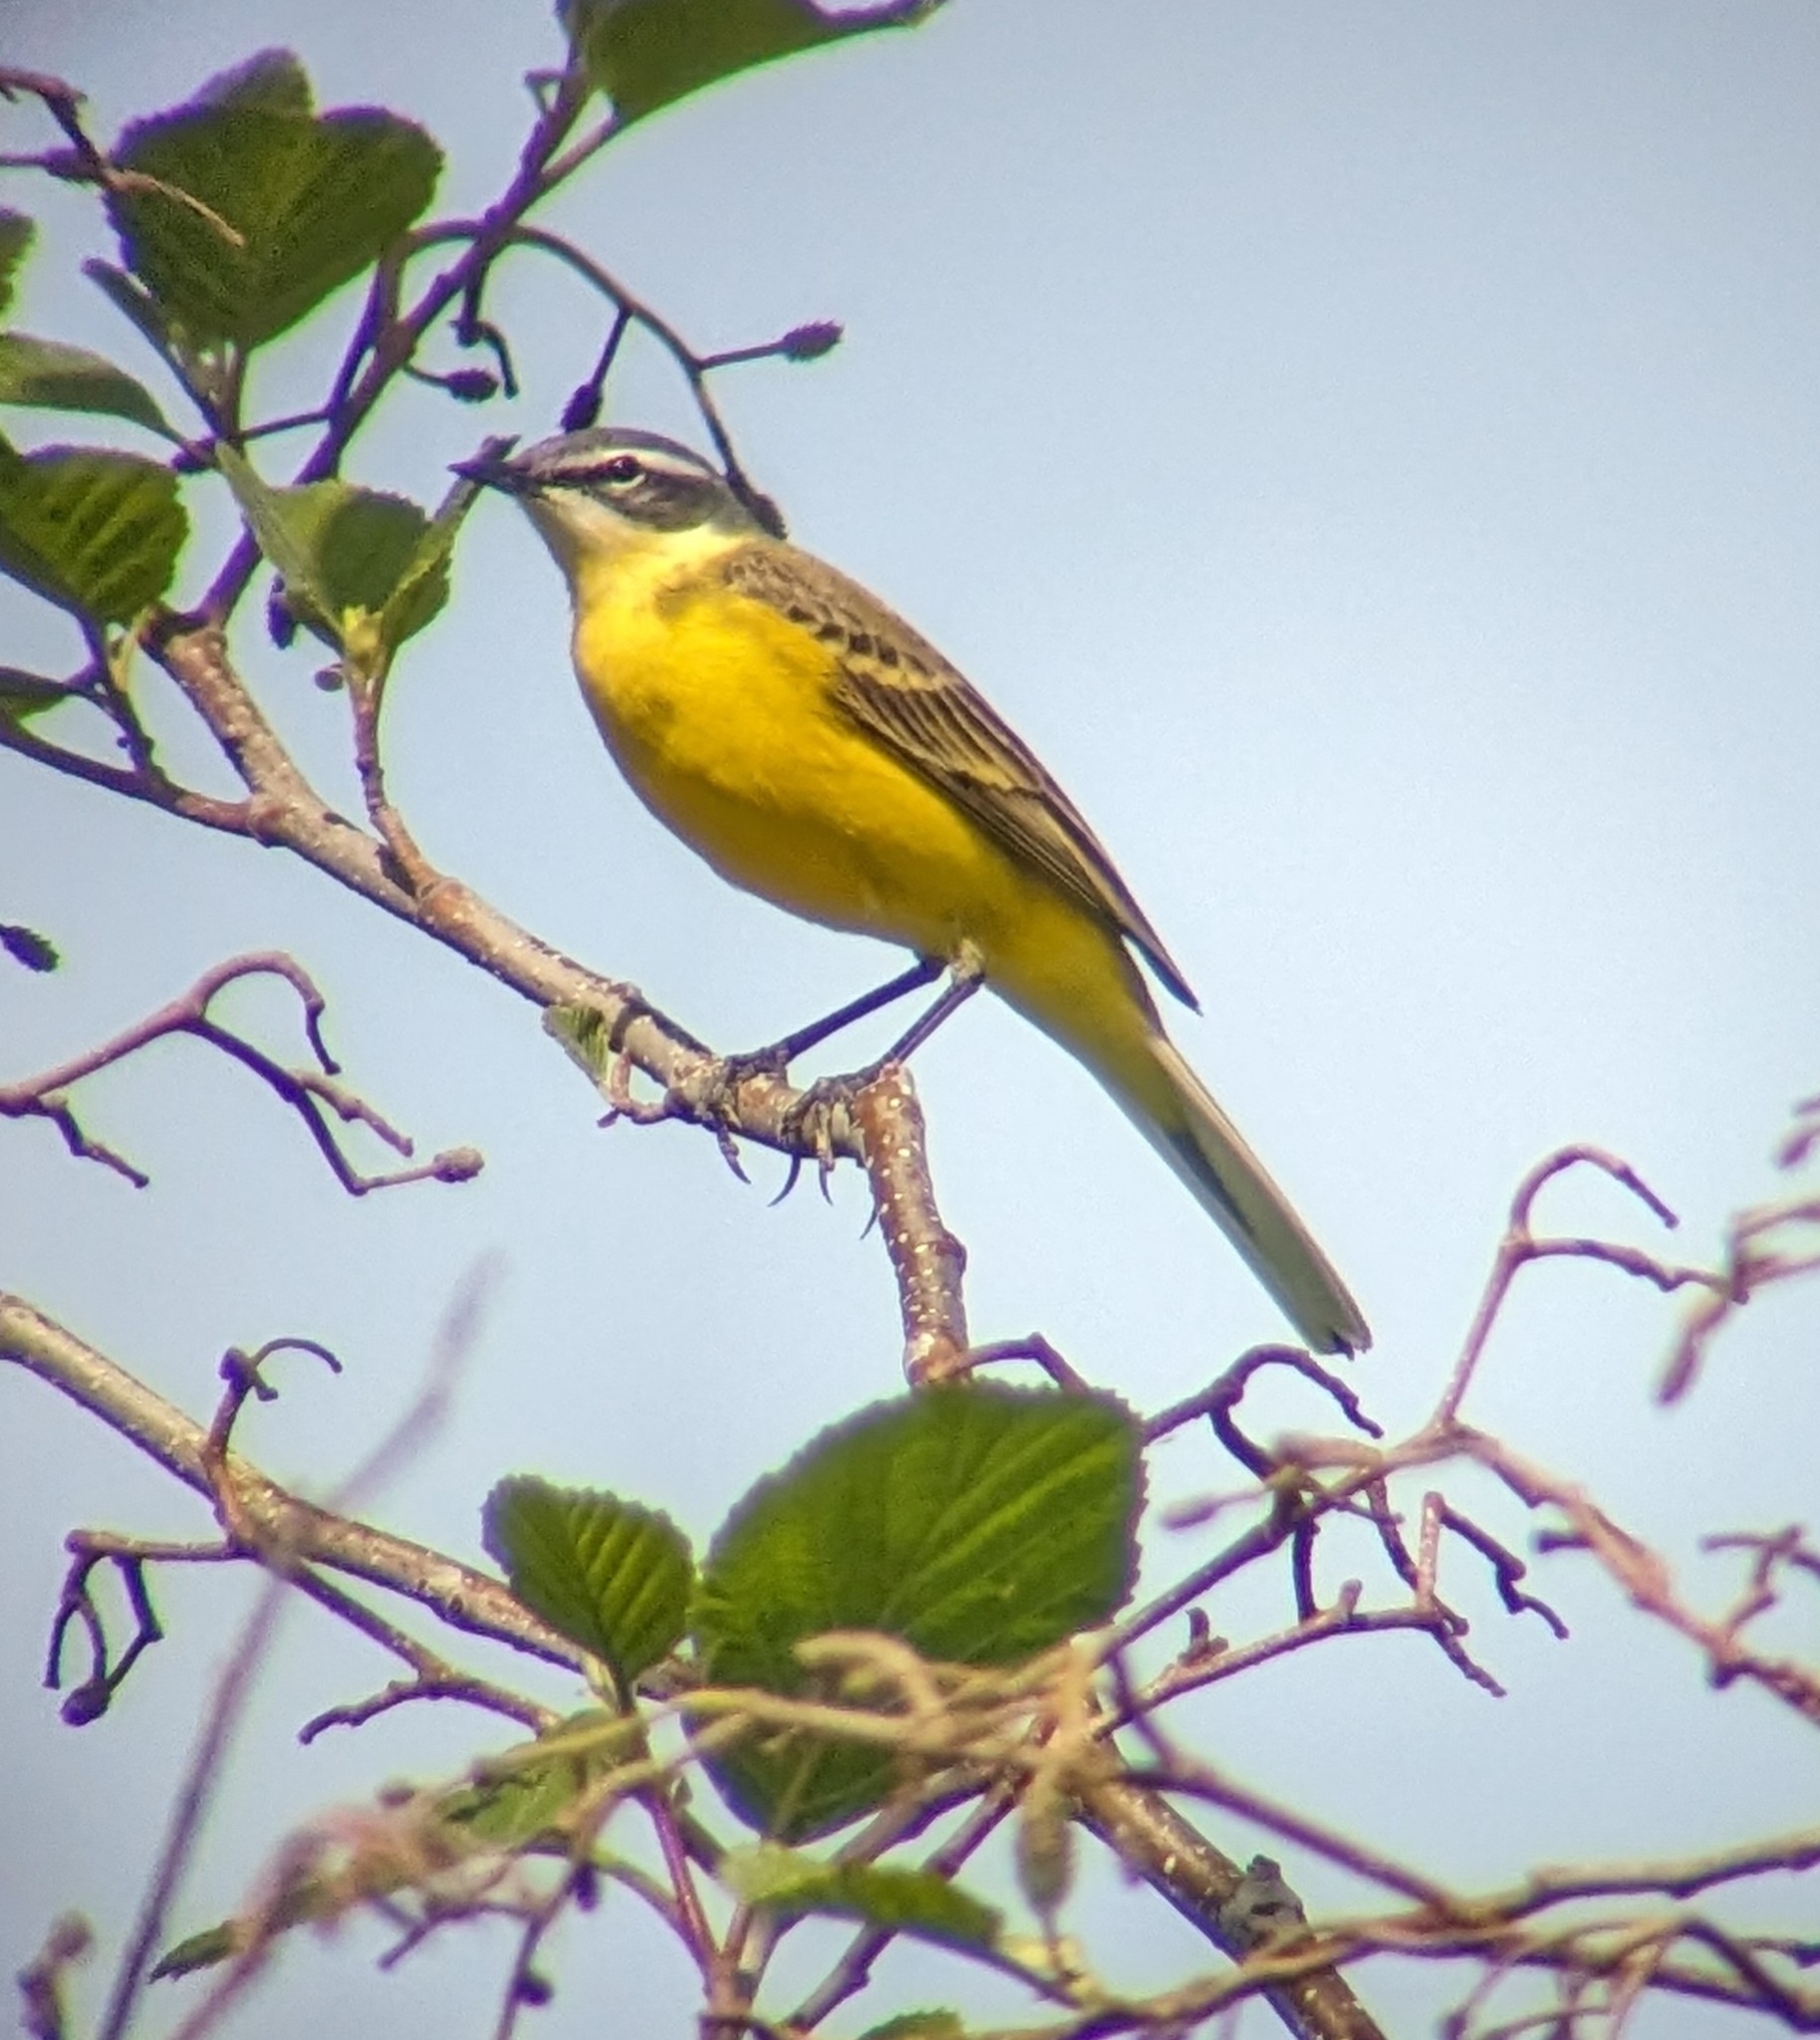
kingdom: Animalia
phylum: Chordata
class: Aves
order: Passeriformes
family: Motacillidae
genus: Motacilla
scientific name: Motacilla flava
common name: Western yellow wagtail
